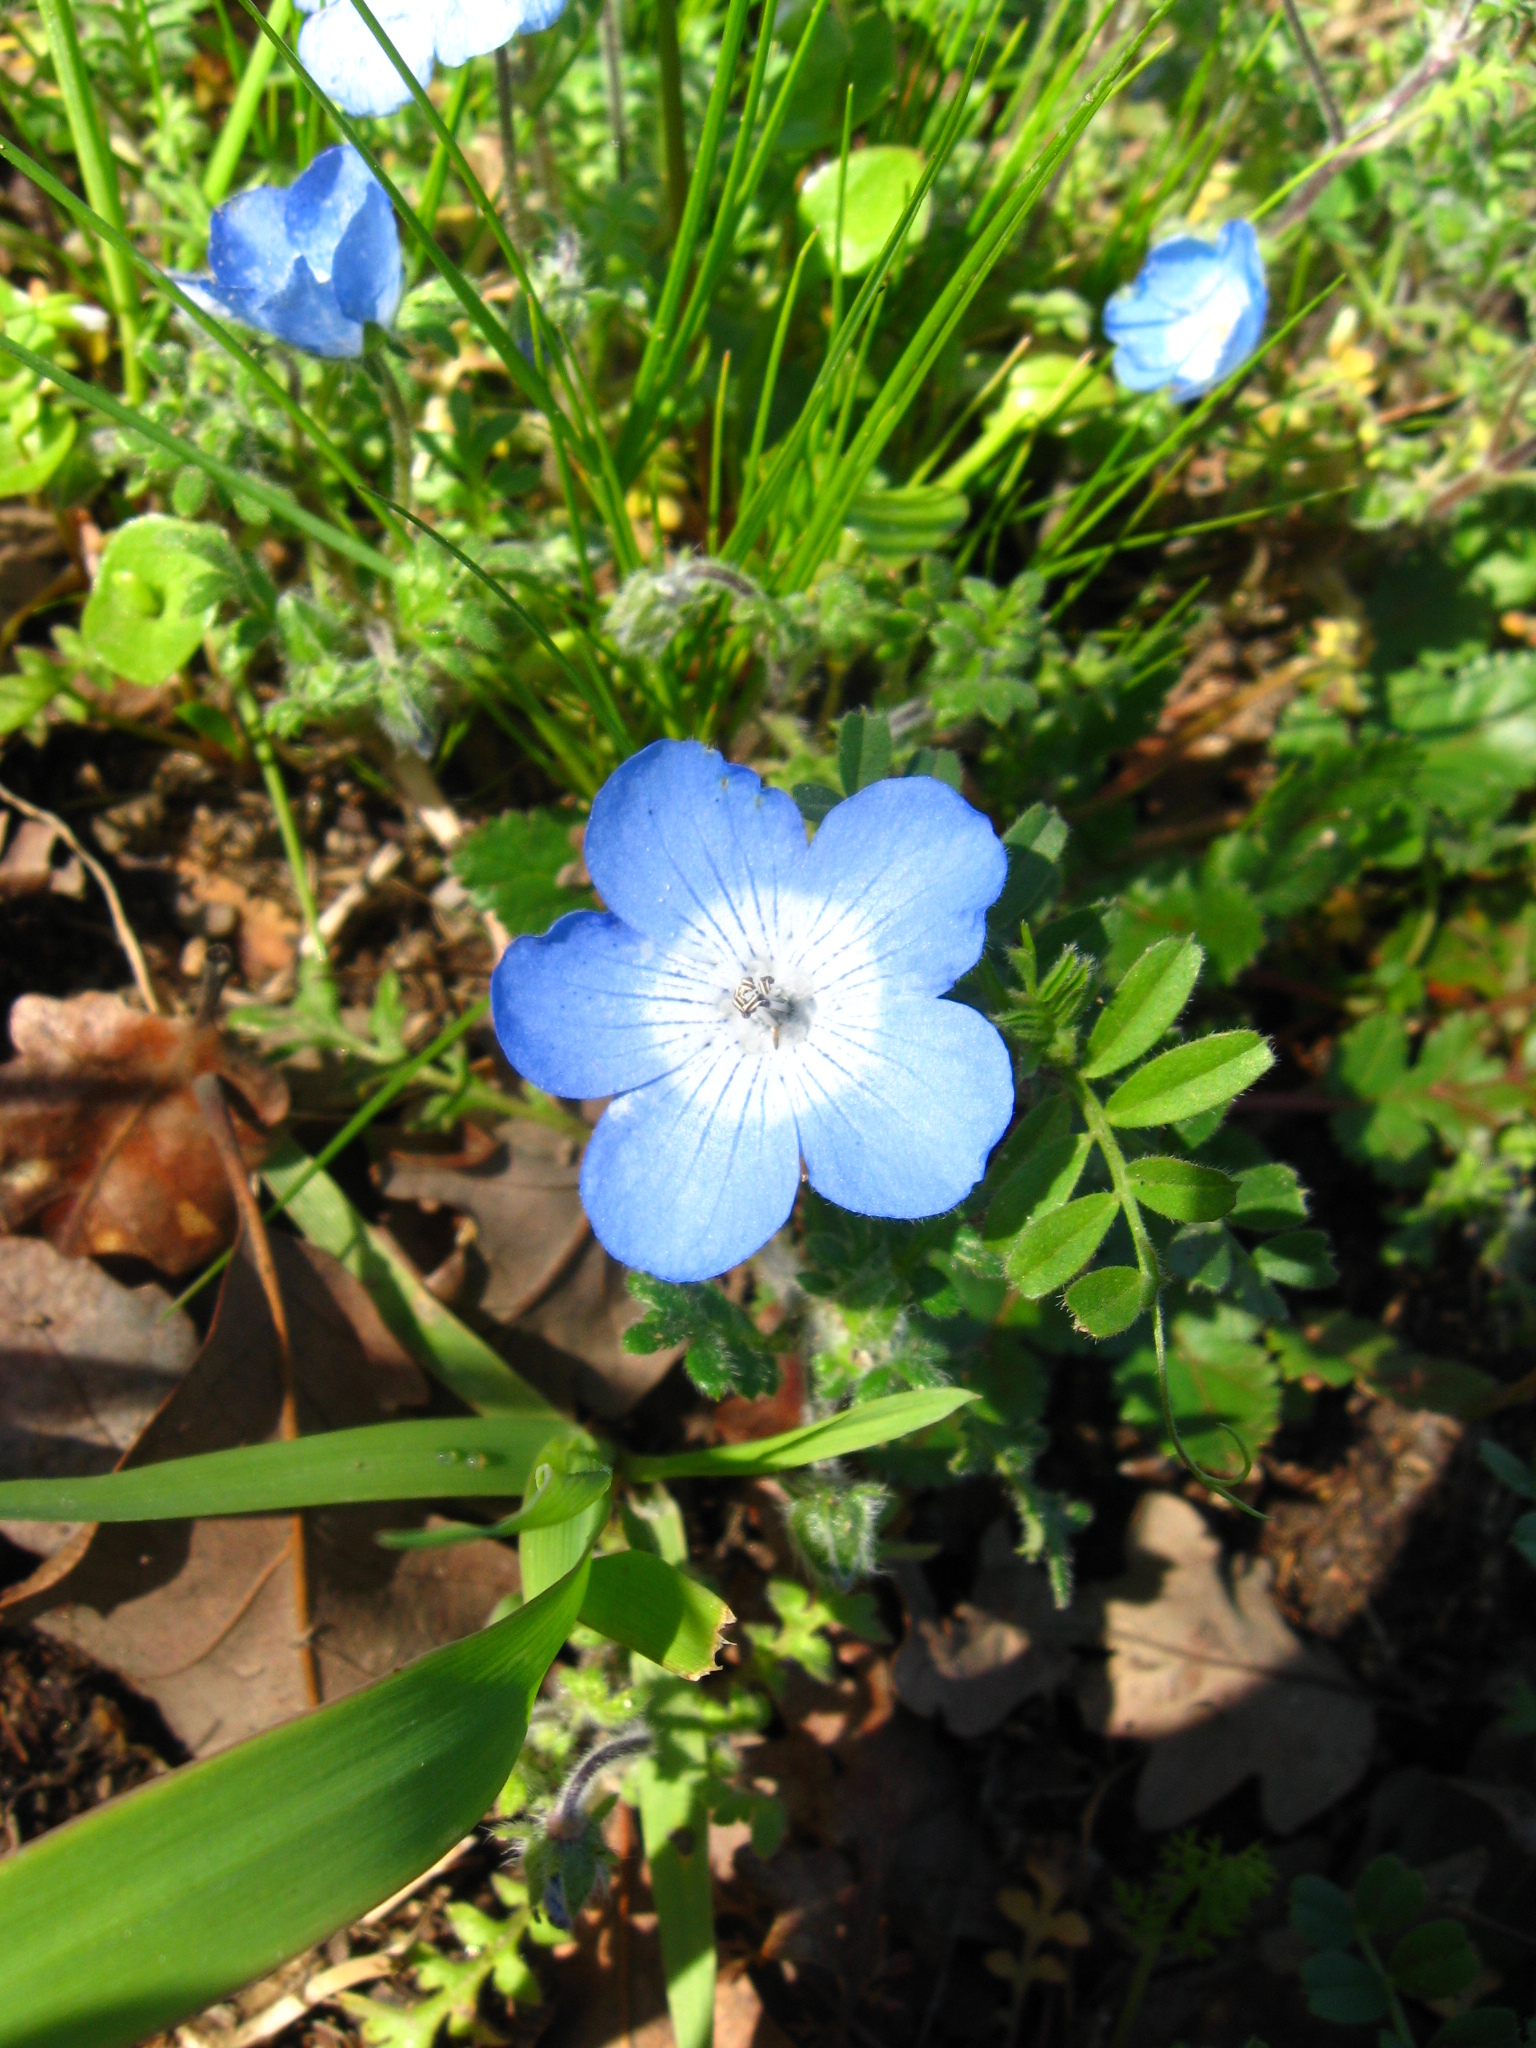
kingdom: Plantae
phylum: Tracheophyta
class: Magnoliopsida
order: Boraginales
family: Hydrophyllaceae
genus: Nemophila
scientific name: Nemophila menziesii
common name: Baby's-blue-eyes
